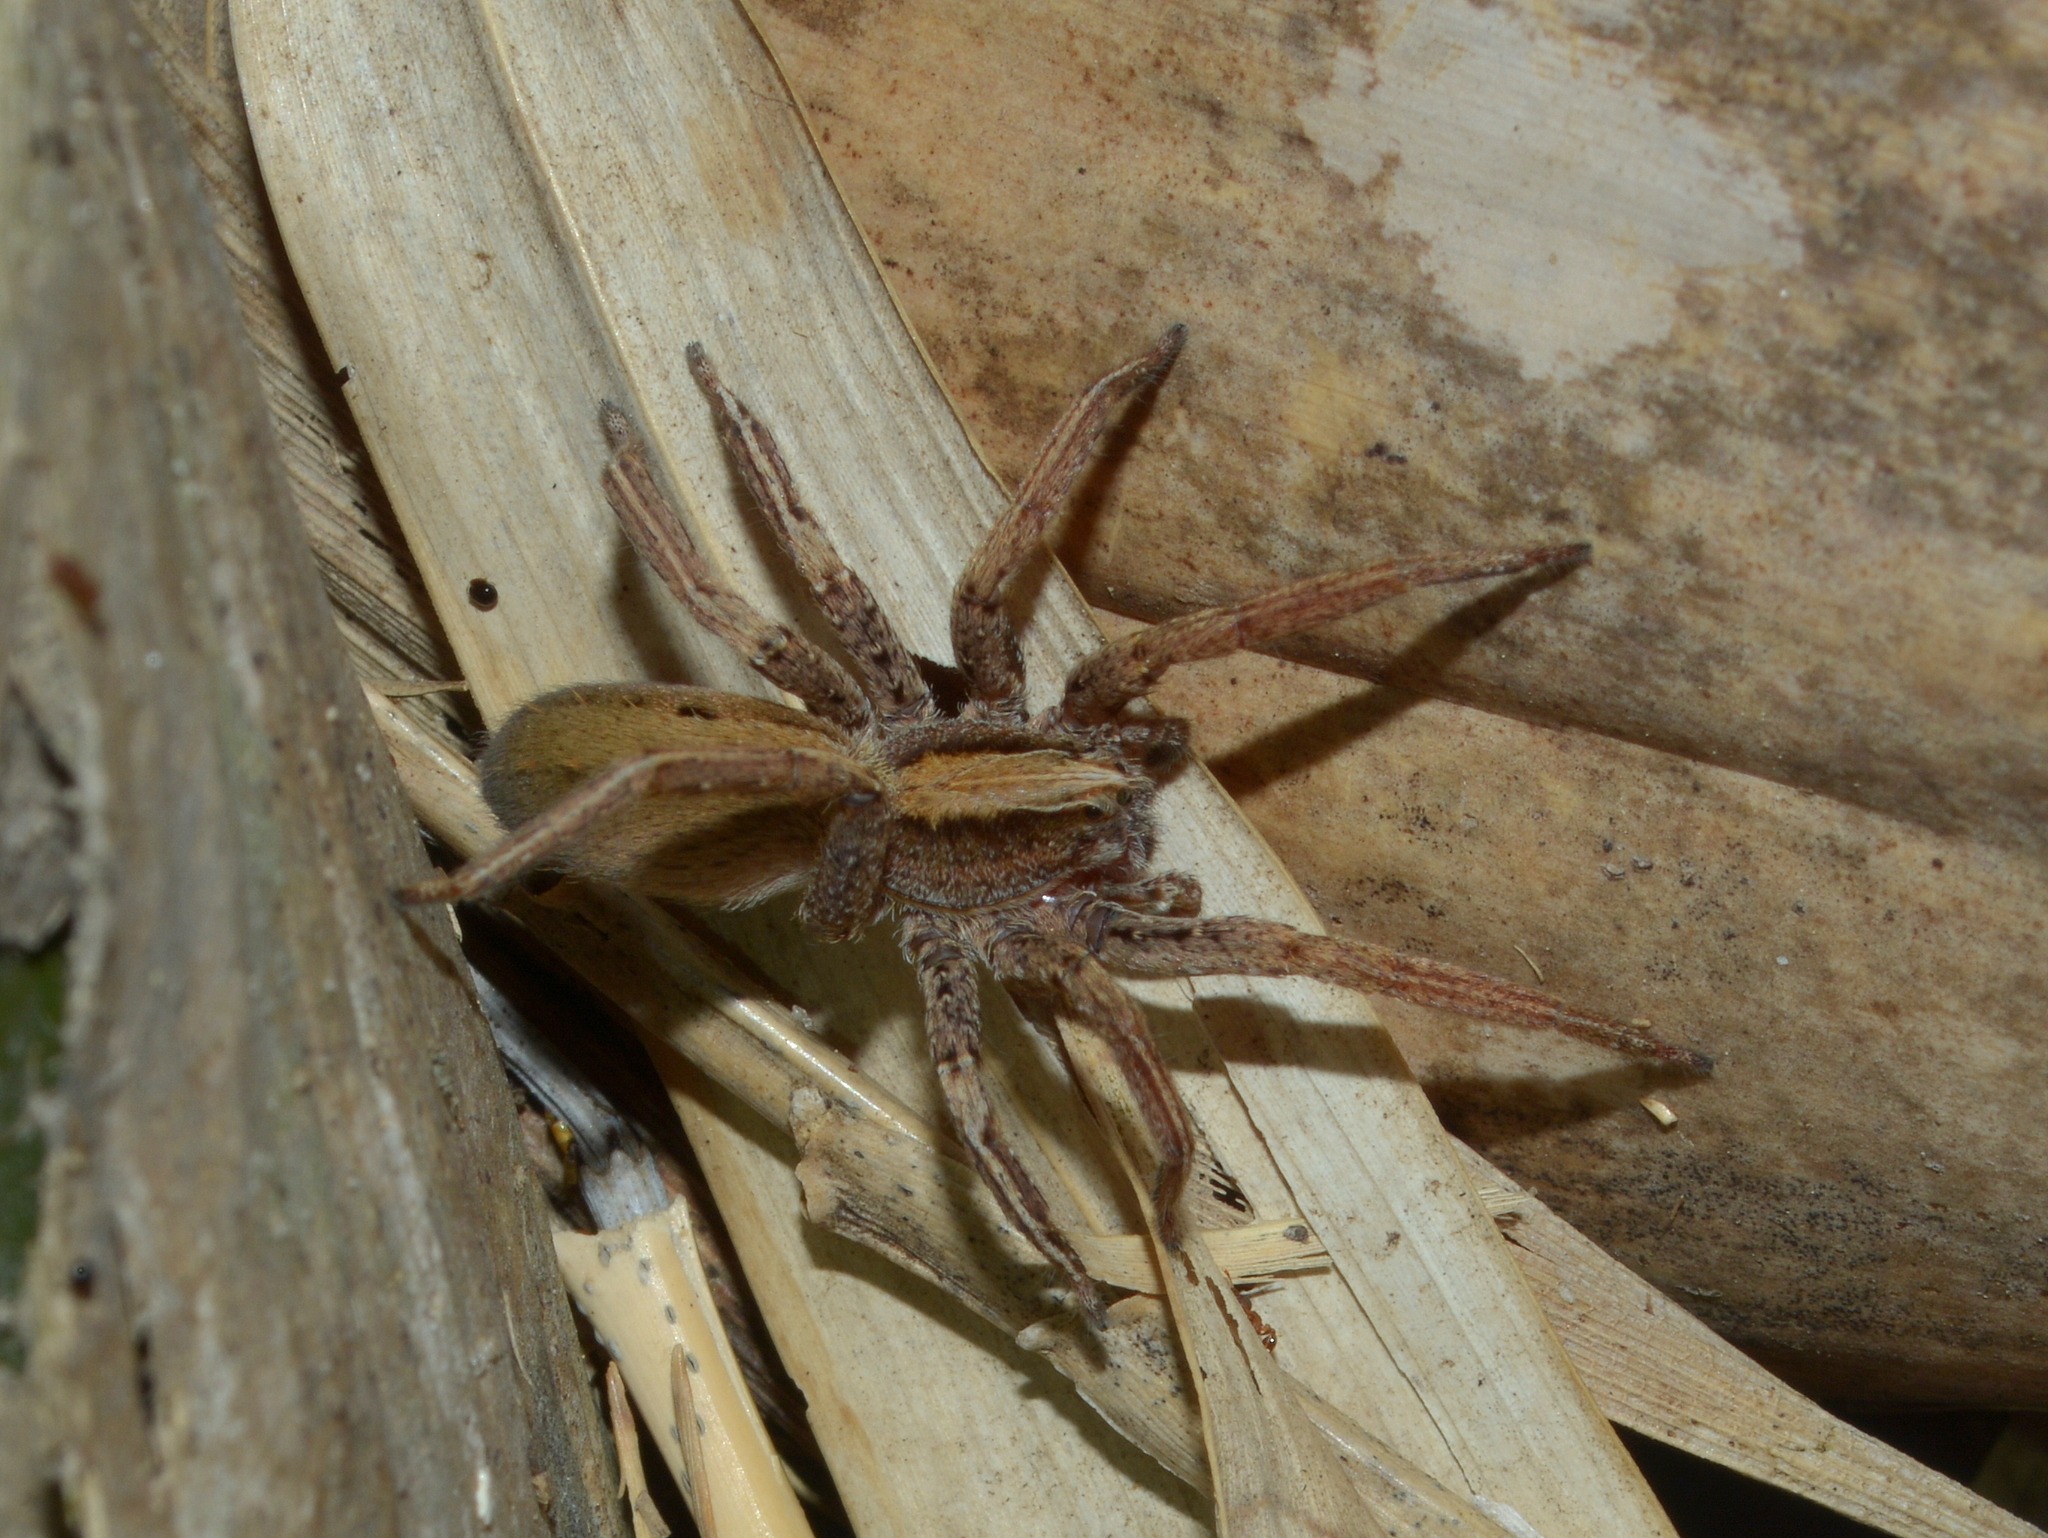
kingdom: Animalia
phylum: Arthropoda
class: Arachnida
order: Araneae
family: Ctenidae
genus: Parabatinga
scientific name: Parabatinga brevipes
